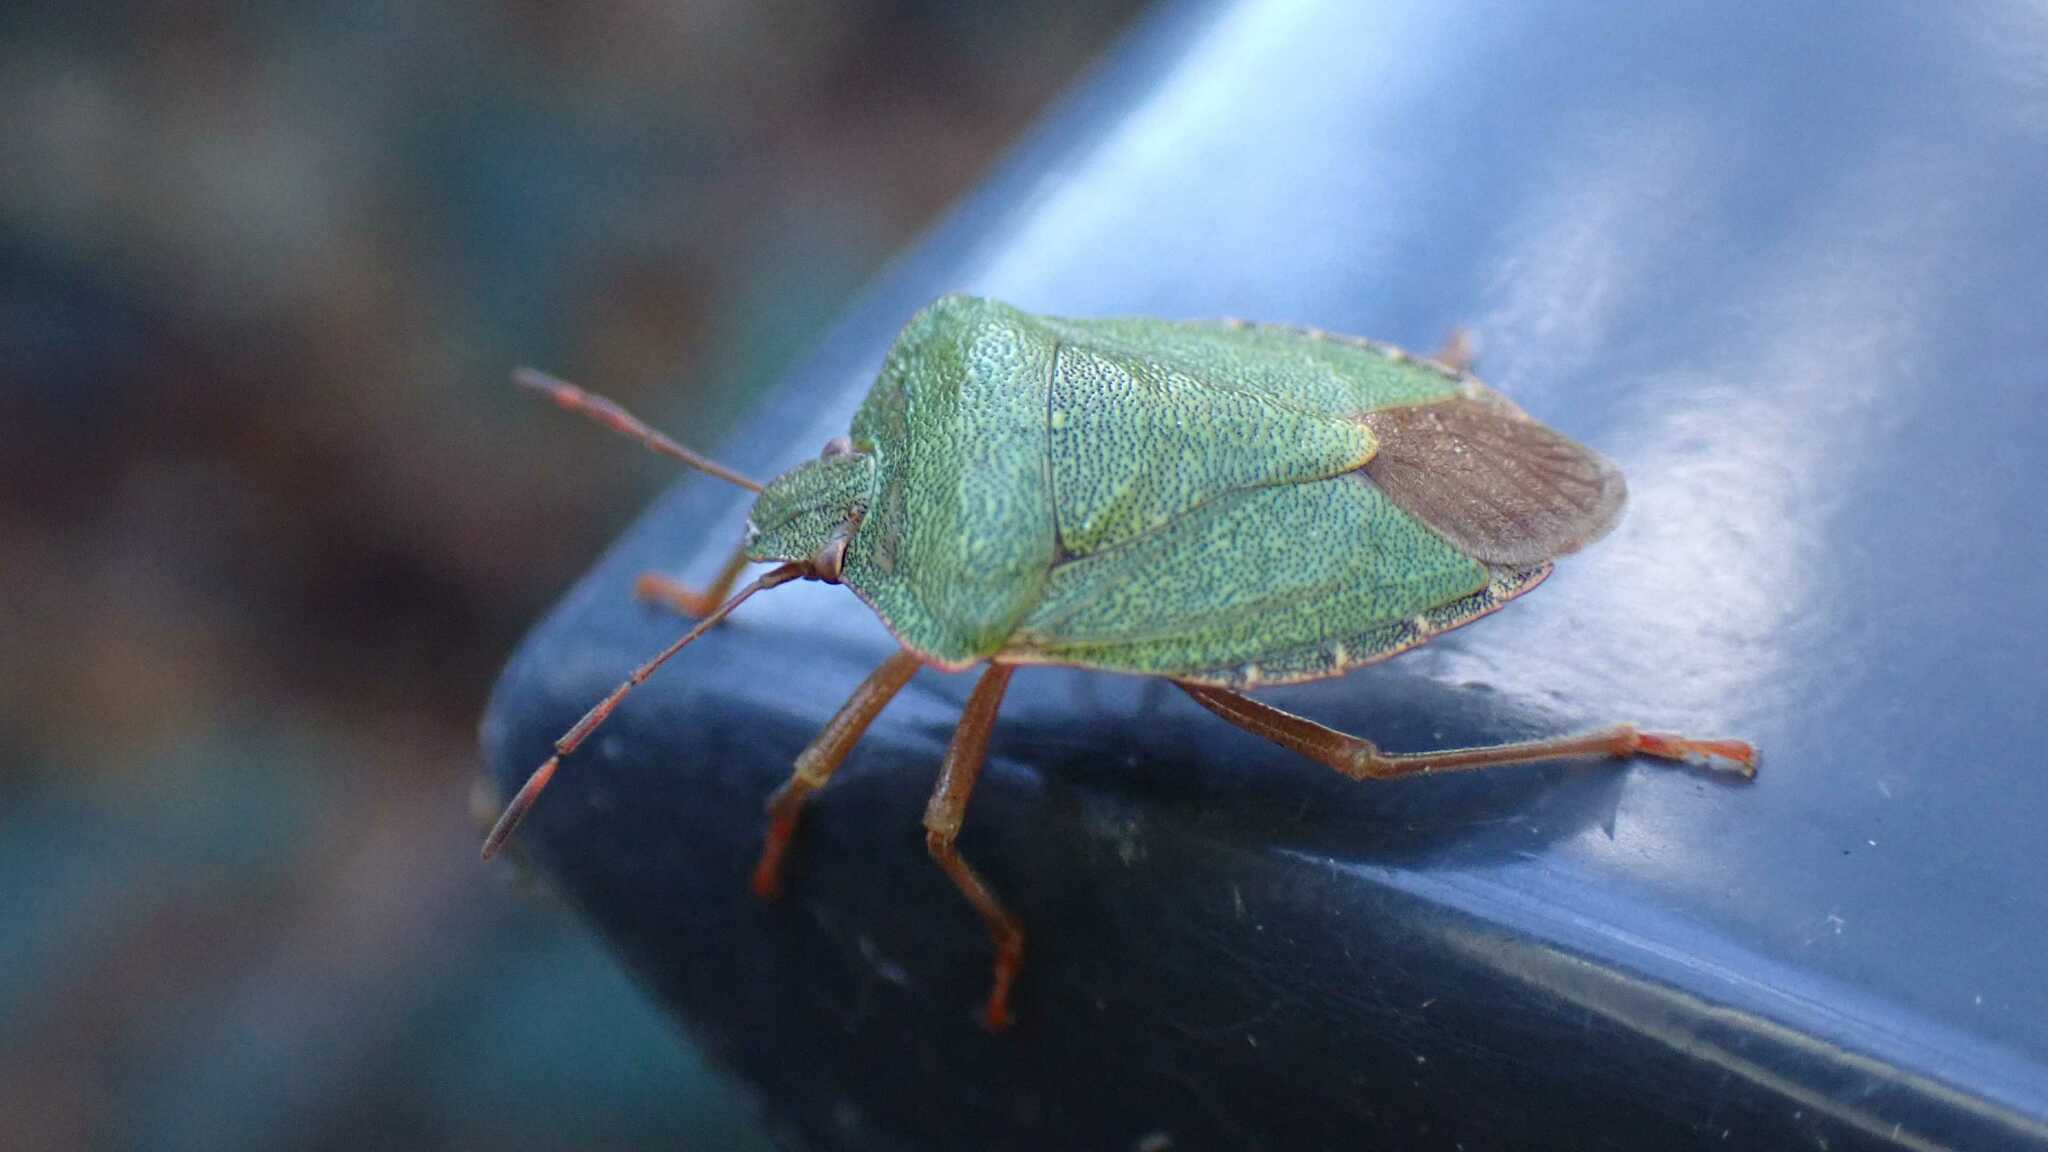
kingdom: Animalia
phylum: Arthropoda
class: Insecta
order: Hemiptera
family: Pentatomidae
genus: Palomena
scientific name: Palomena prasina
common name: Green shieldbug
